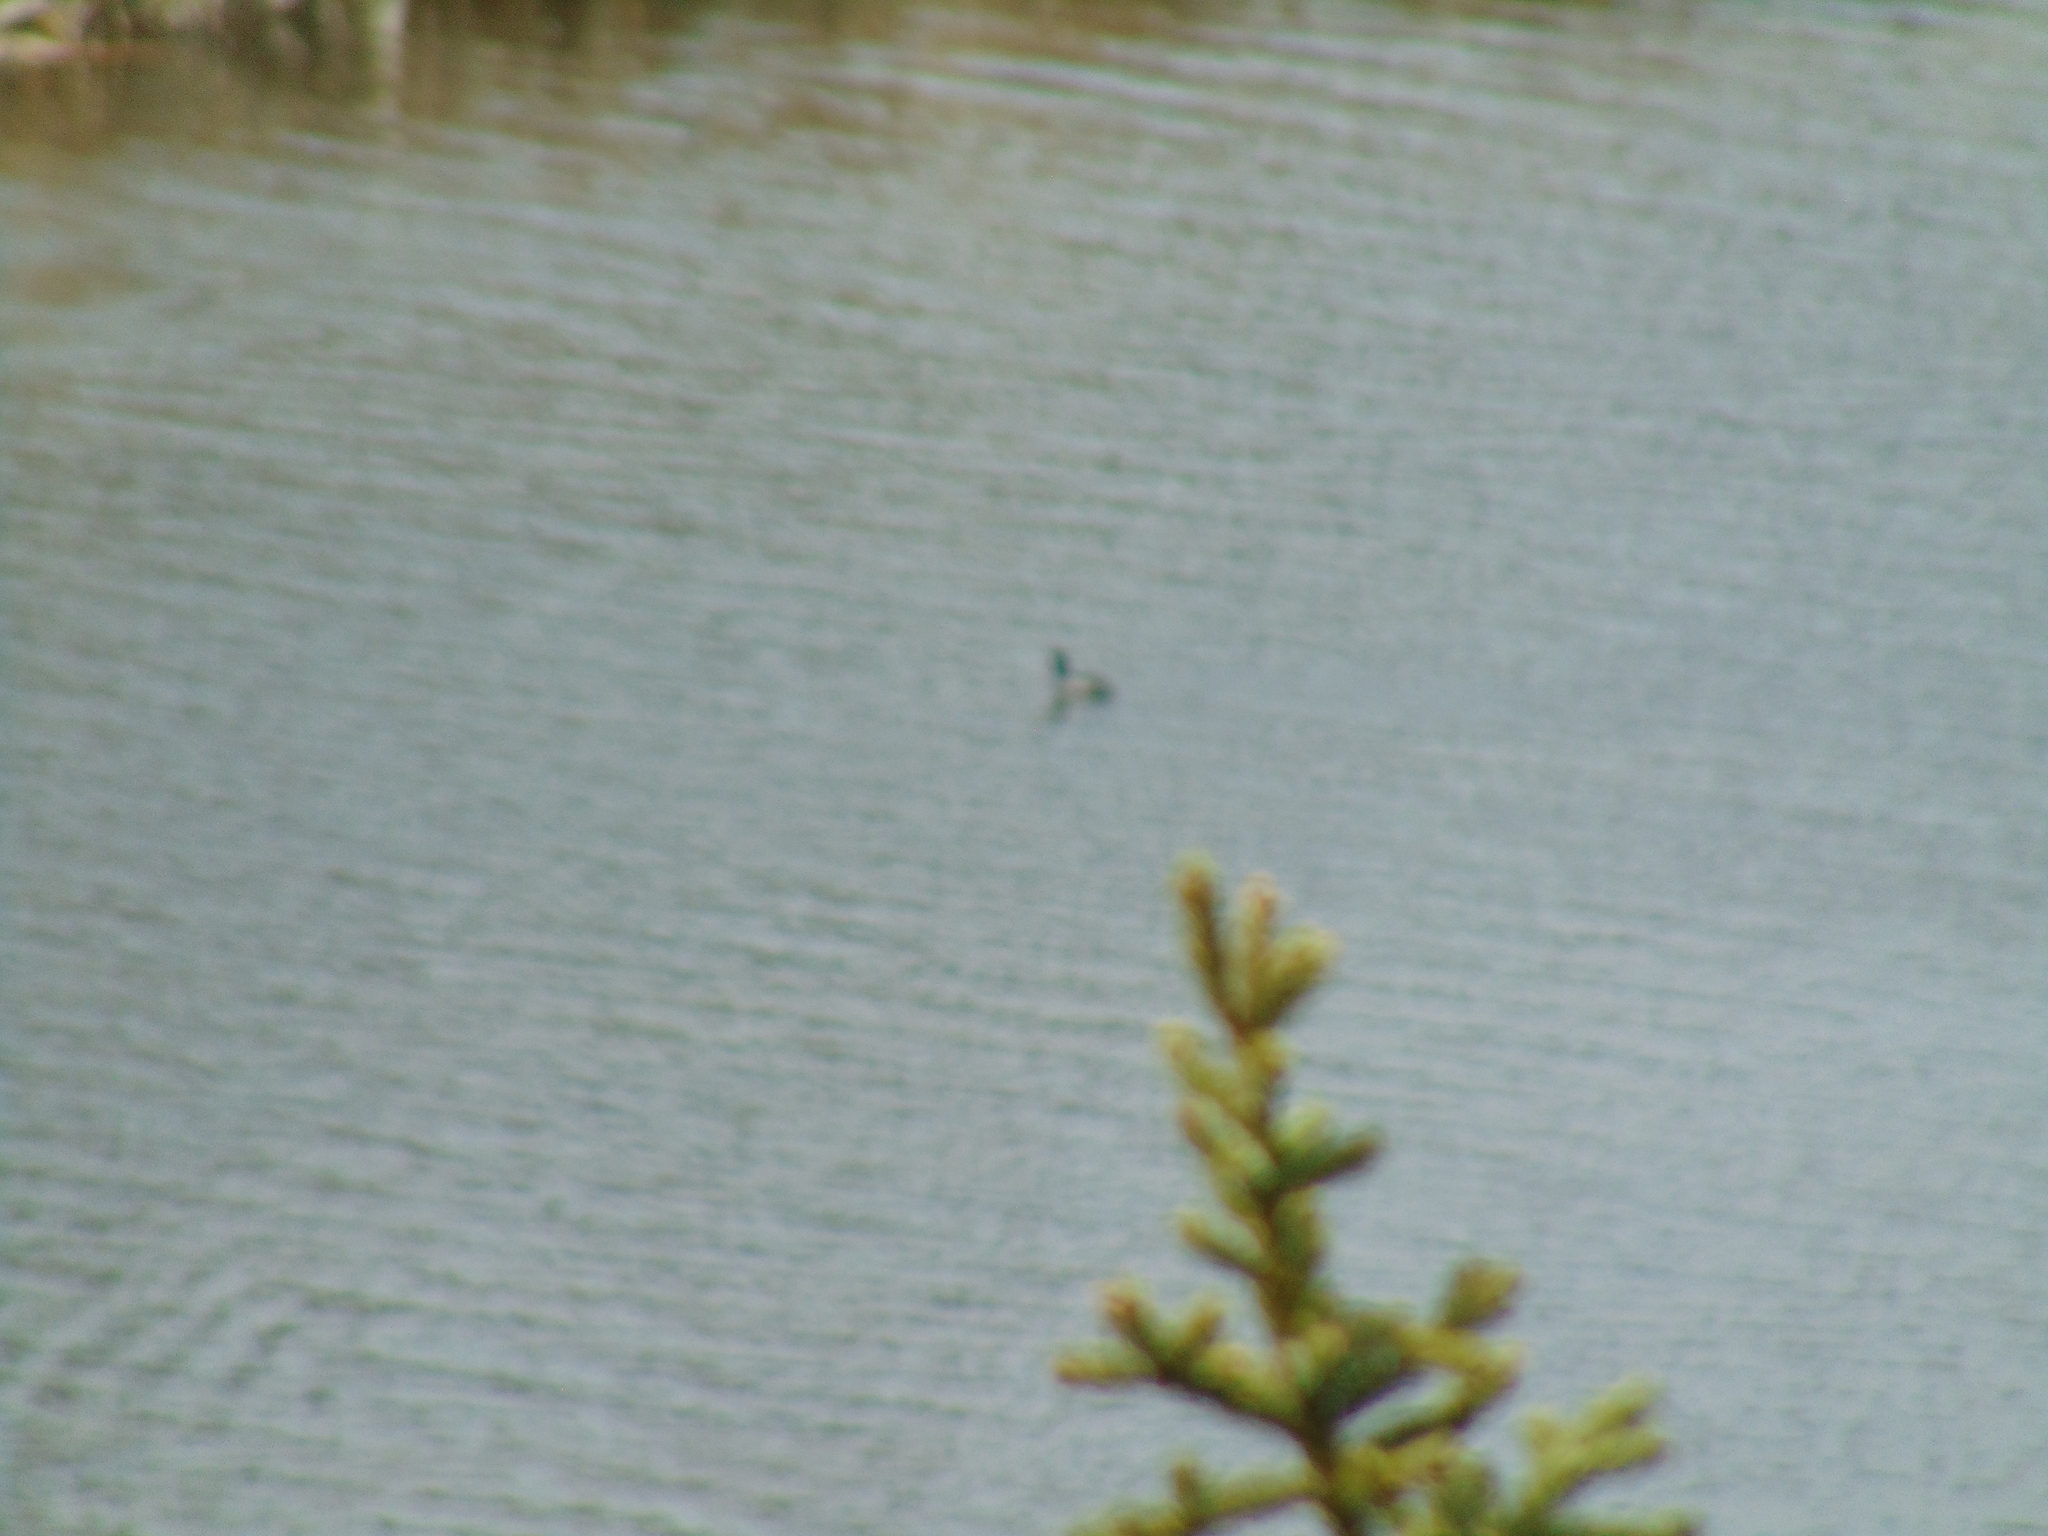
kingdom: Animalia
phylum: Chordata
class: Aves
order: Anseriformes
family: Anatidae
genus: Anas
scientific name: Anas platyrhynchos
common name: Mallard
